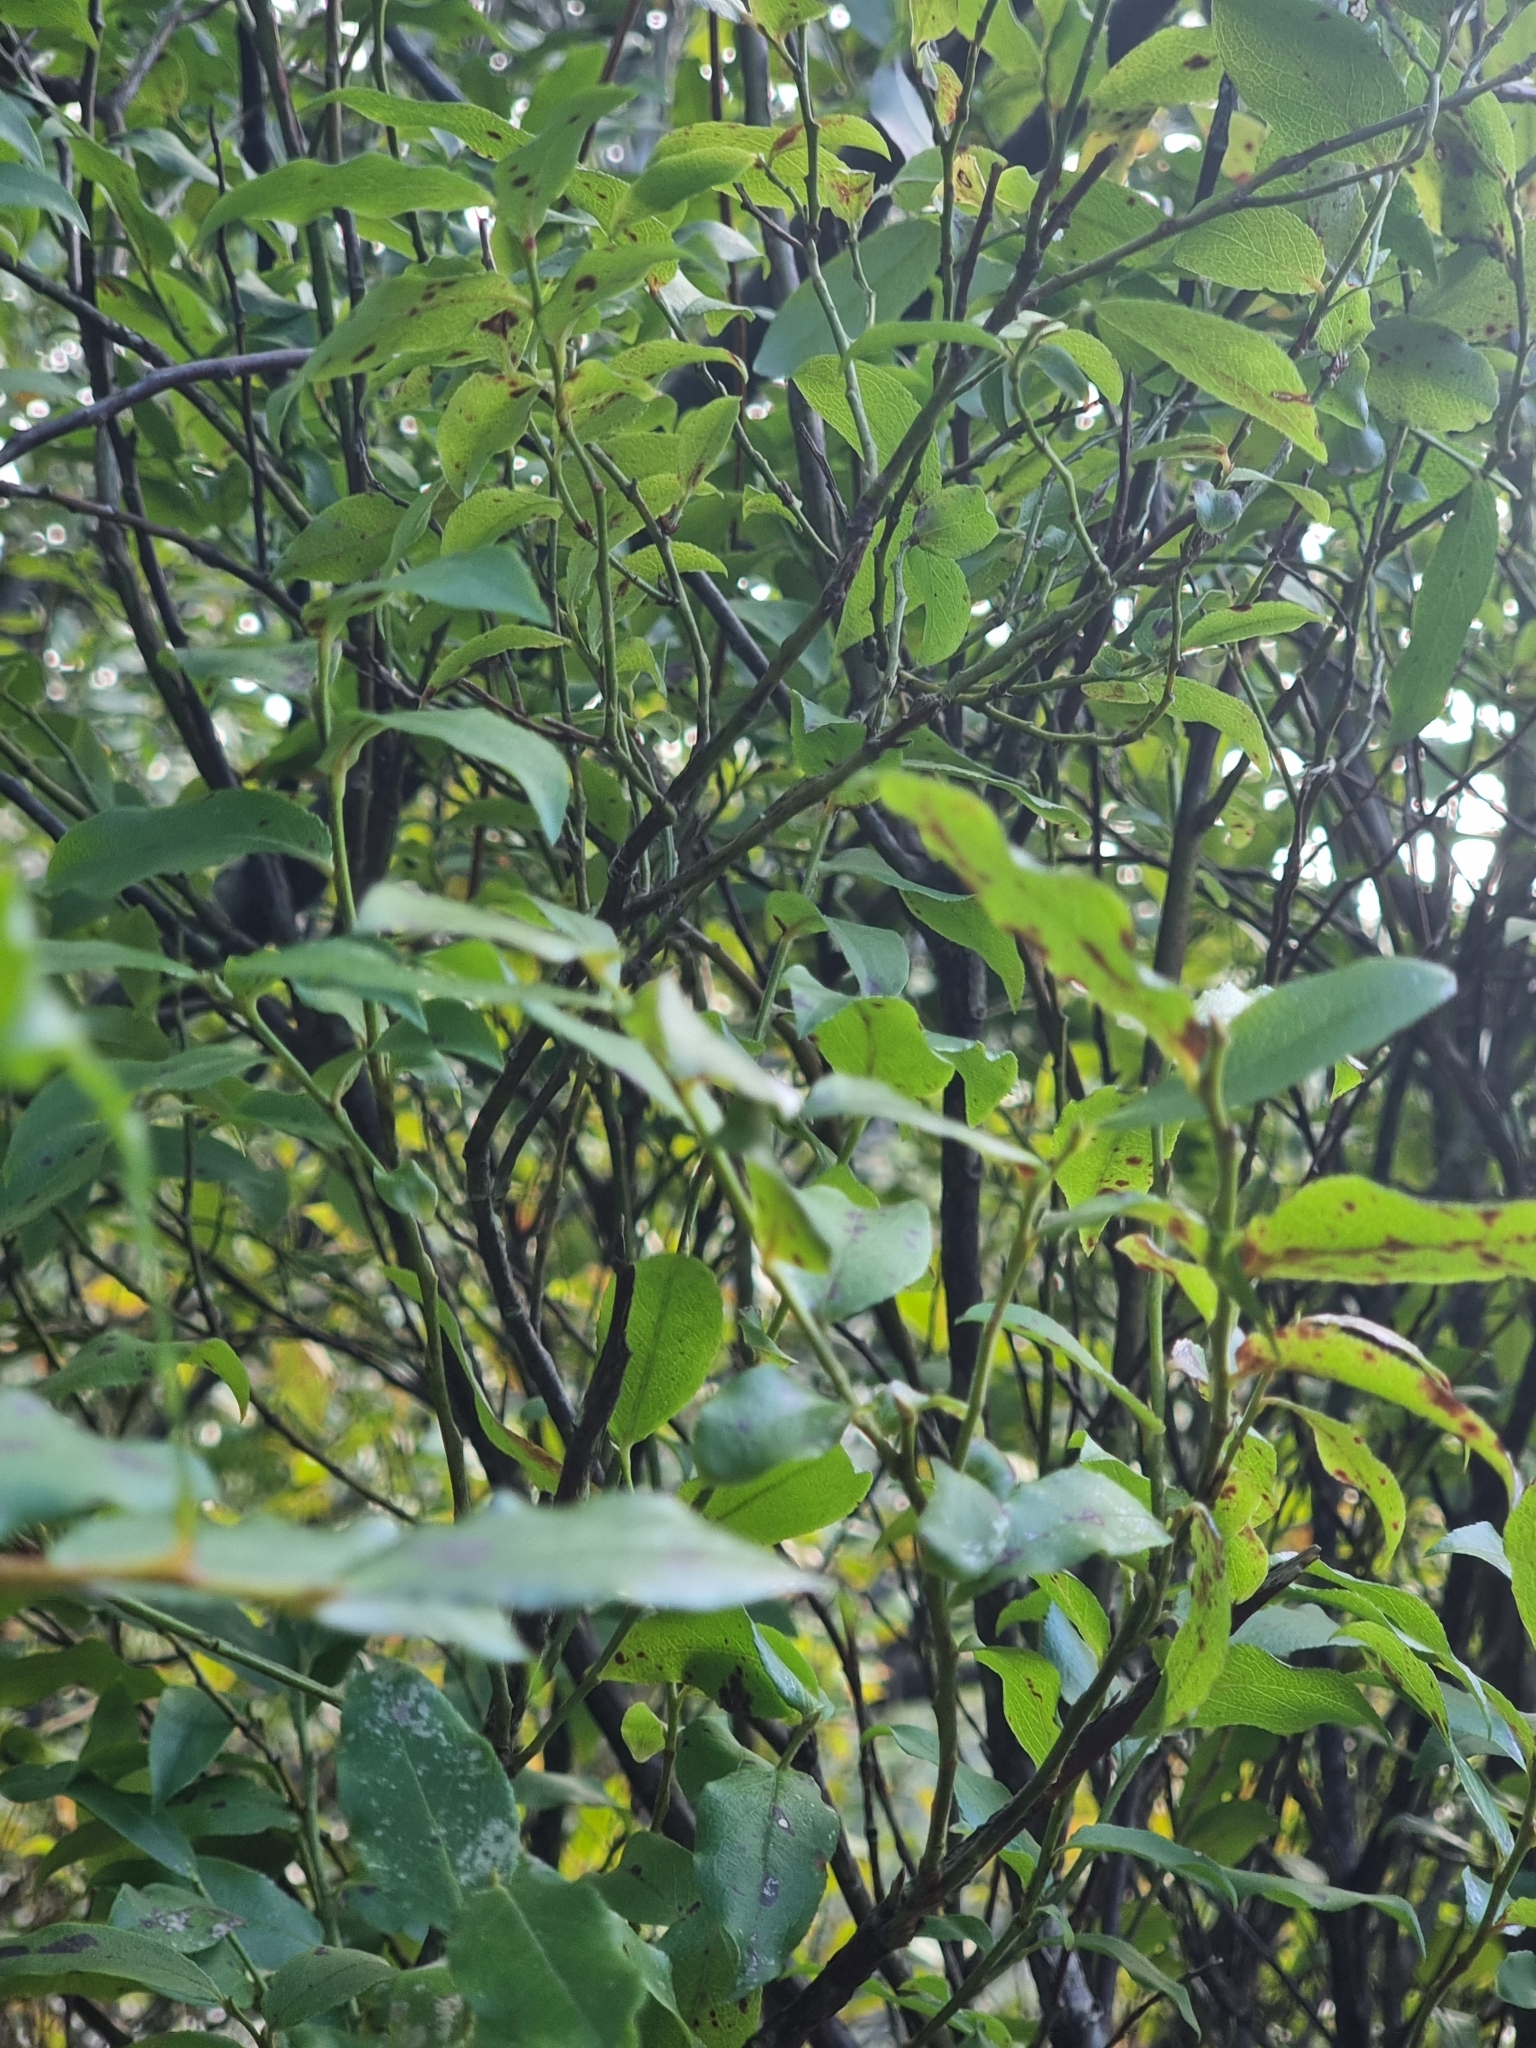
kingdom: Plantae
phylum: Tracheophyta
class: Magnoliopsida
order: Ericales
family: Ericaceae
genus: Vaccinium
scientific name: Vaccinium padifolium
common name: Madeiran blueberry
